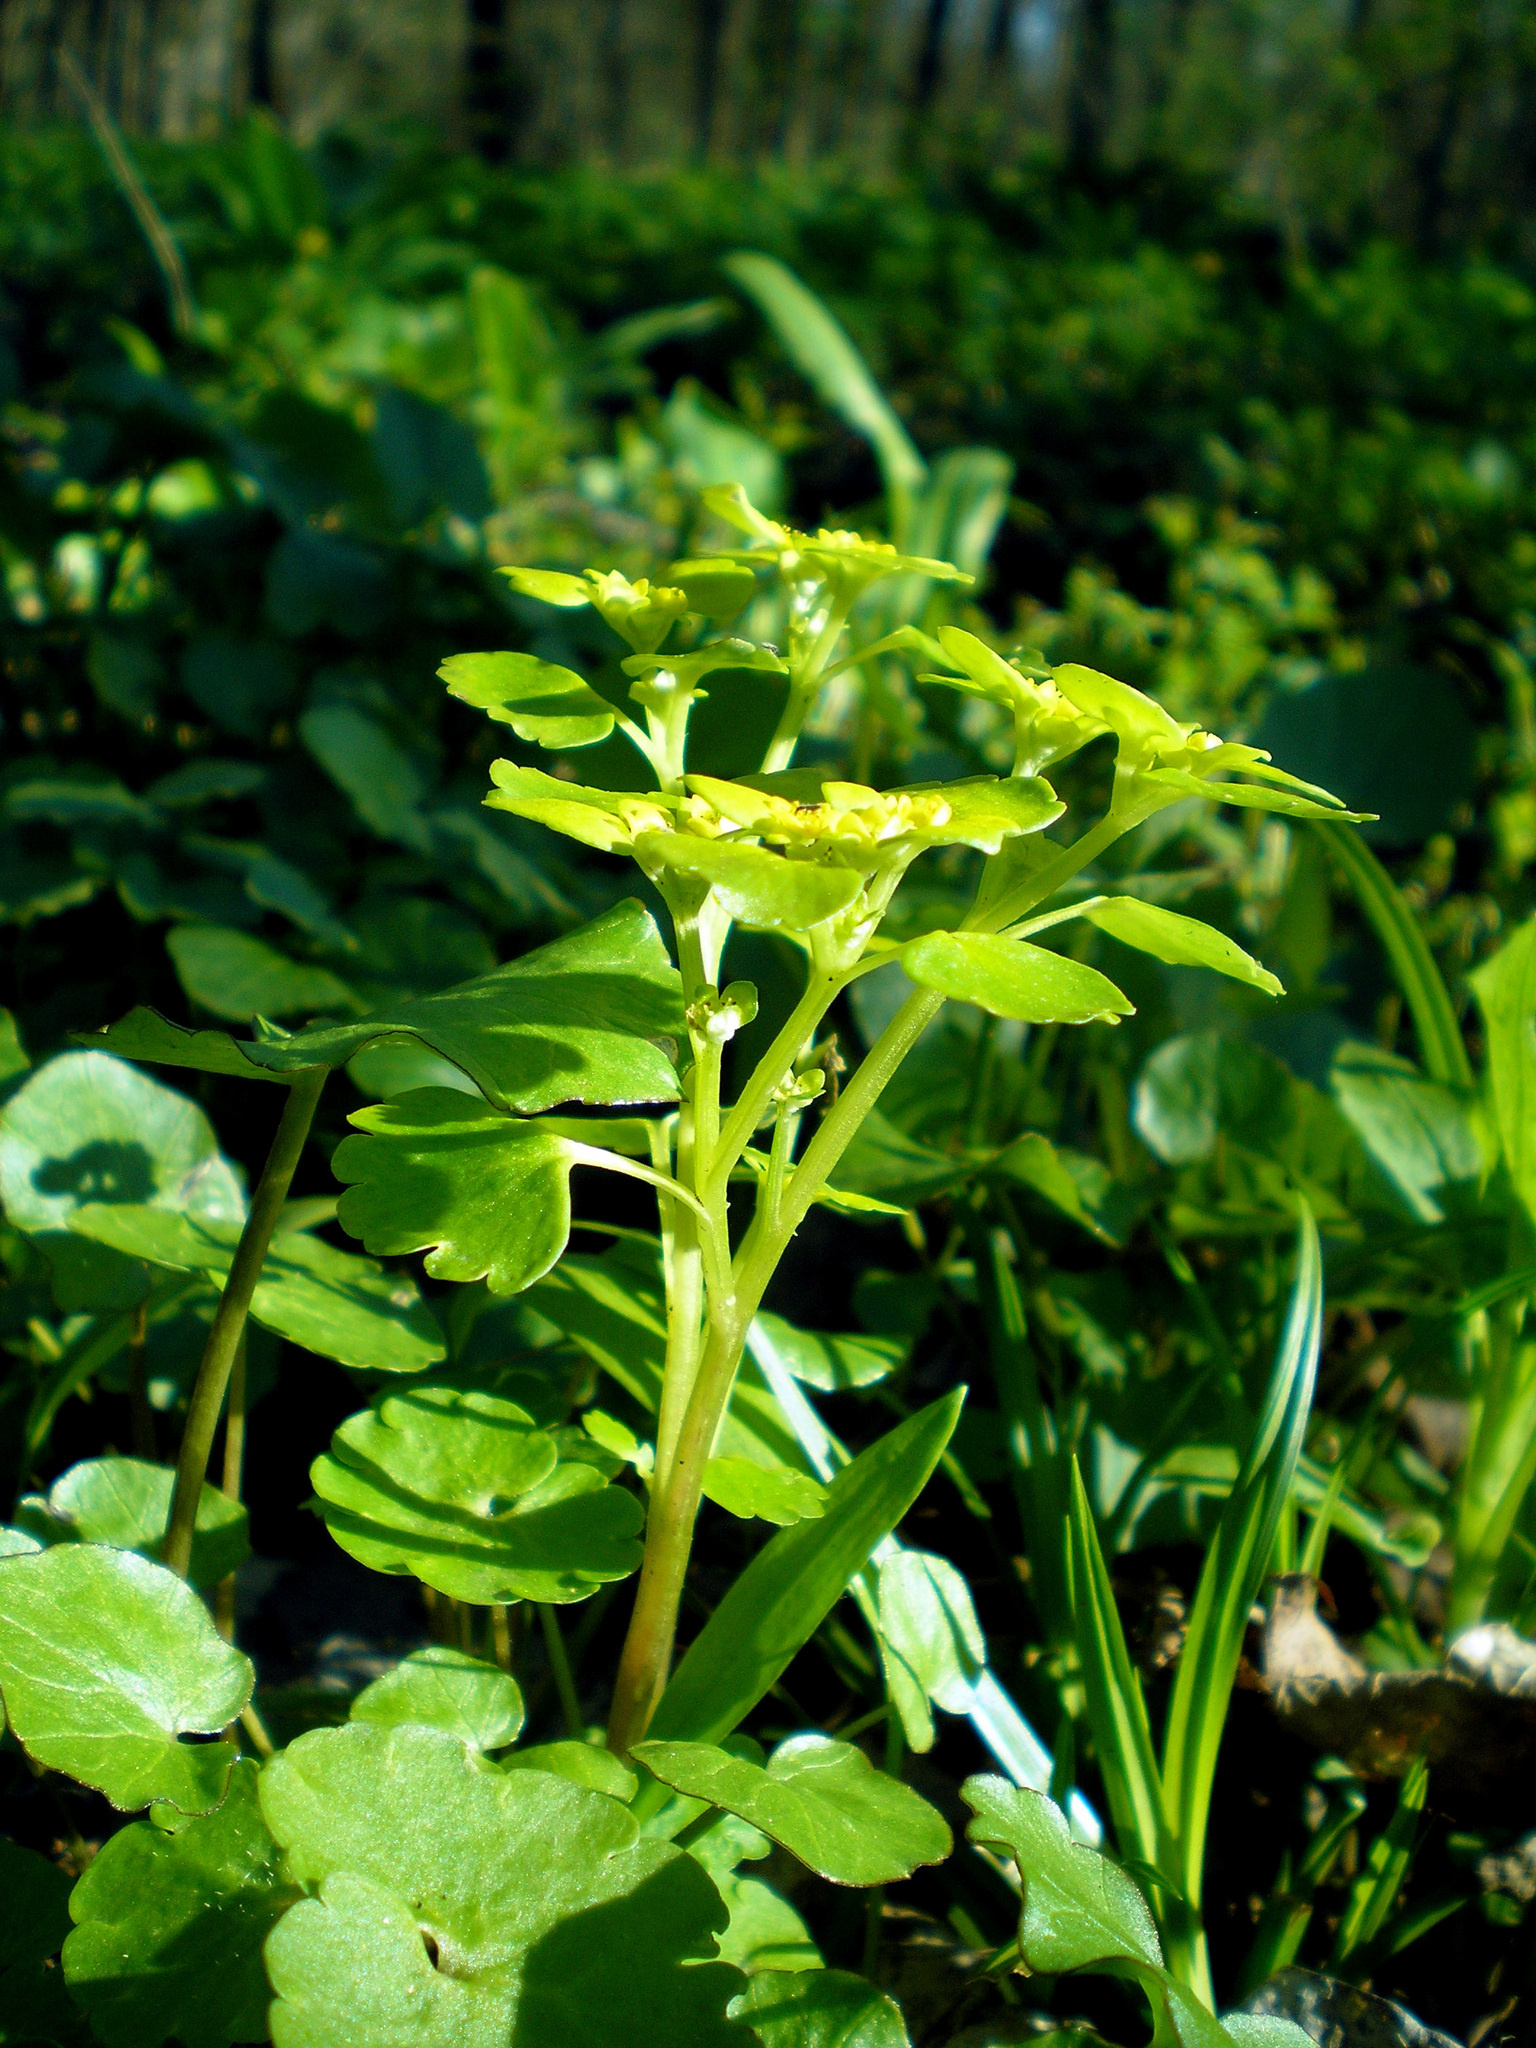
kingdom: Plantae
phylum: Tracheophyta
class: Magnoliopsida
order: Saxifragales
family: Saxifragaceae
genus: Chrysosplenium
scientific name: Chrysosplenium alternifolium
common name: Alternate-leaved golden-saxifrage
